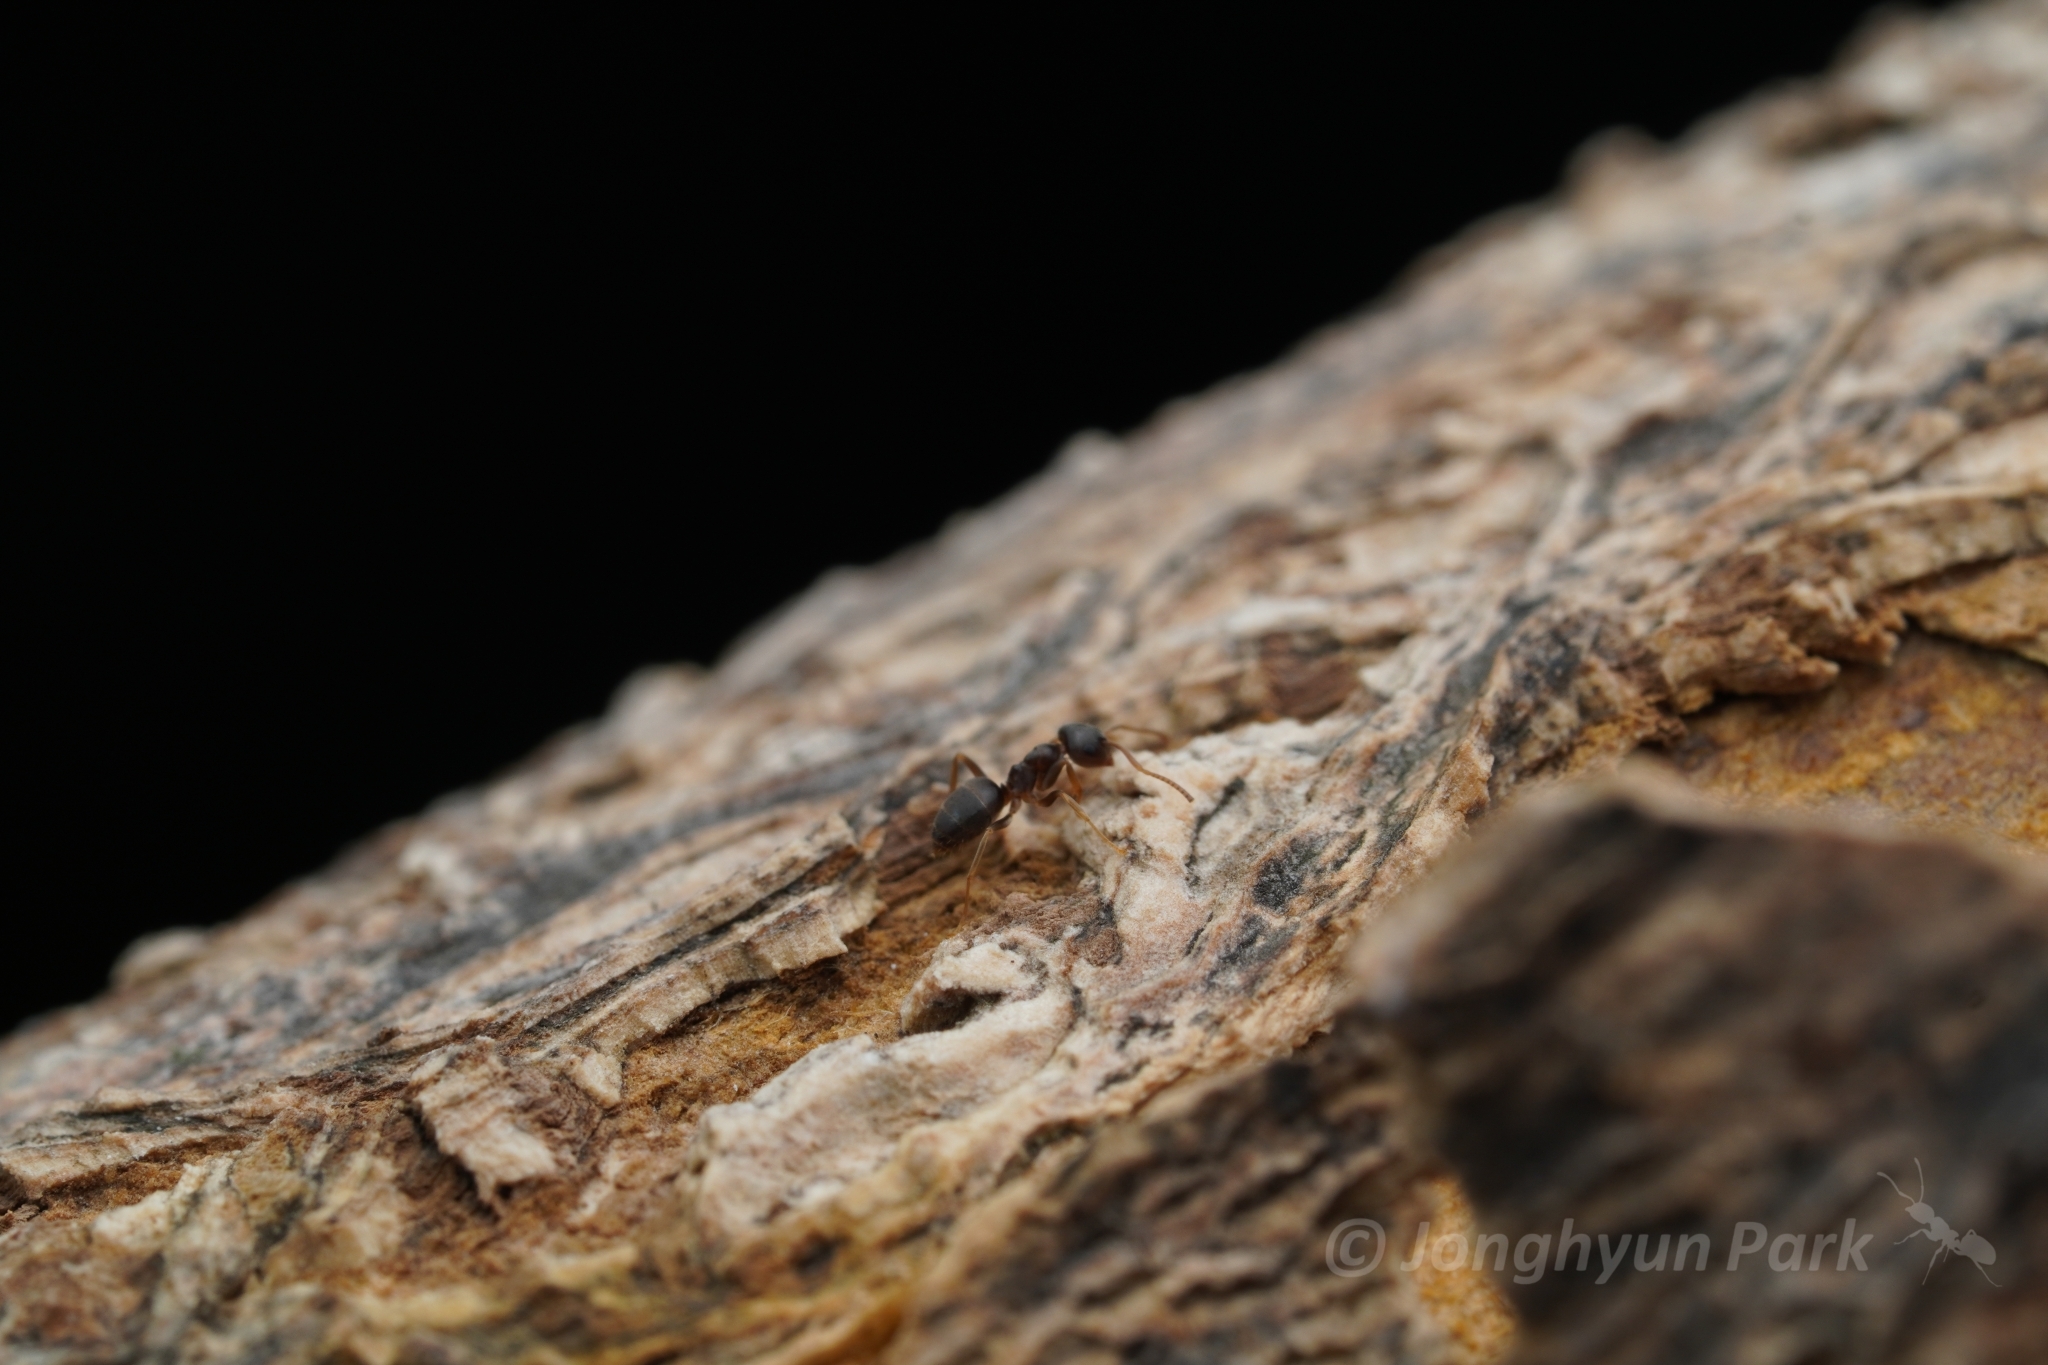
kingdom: Animalia
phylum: Arthropoda
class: Insecta
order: Hymenoptera
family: Formicidae
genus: Lasius
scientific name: Lasius americanus
